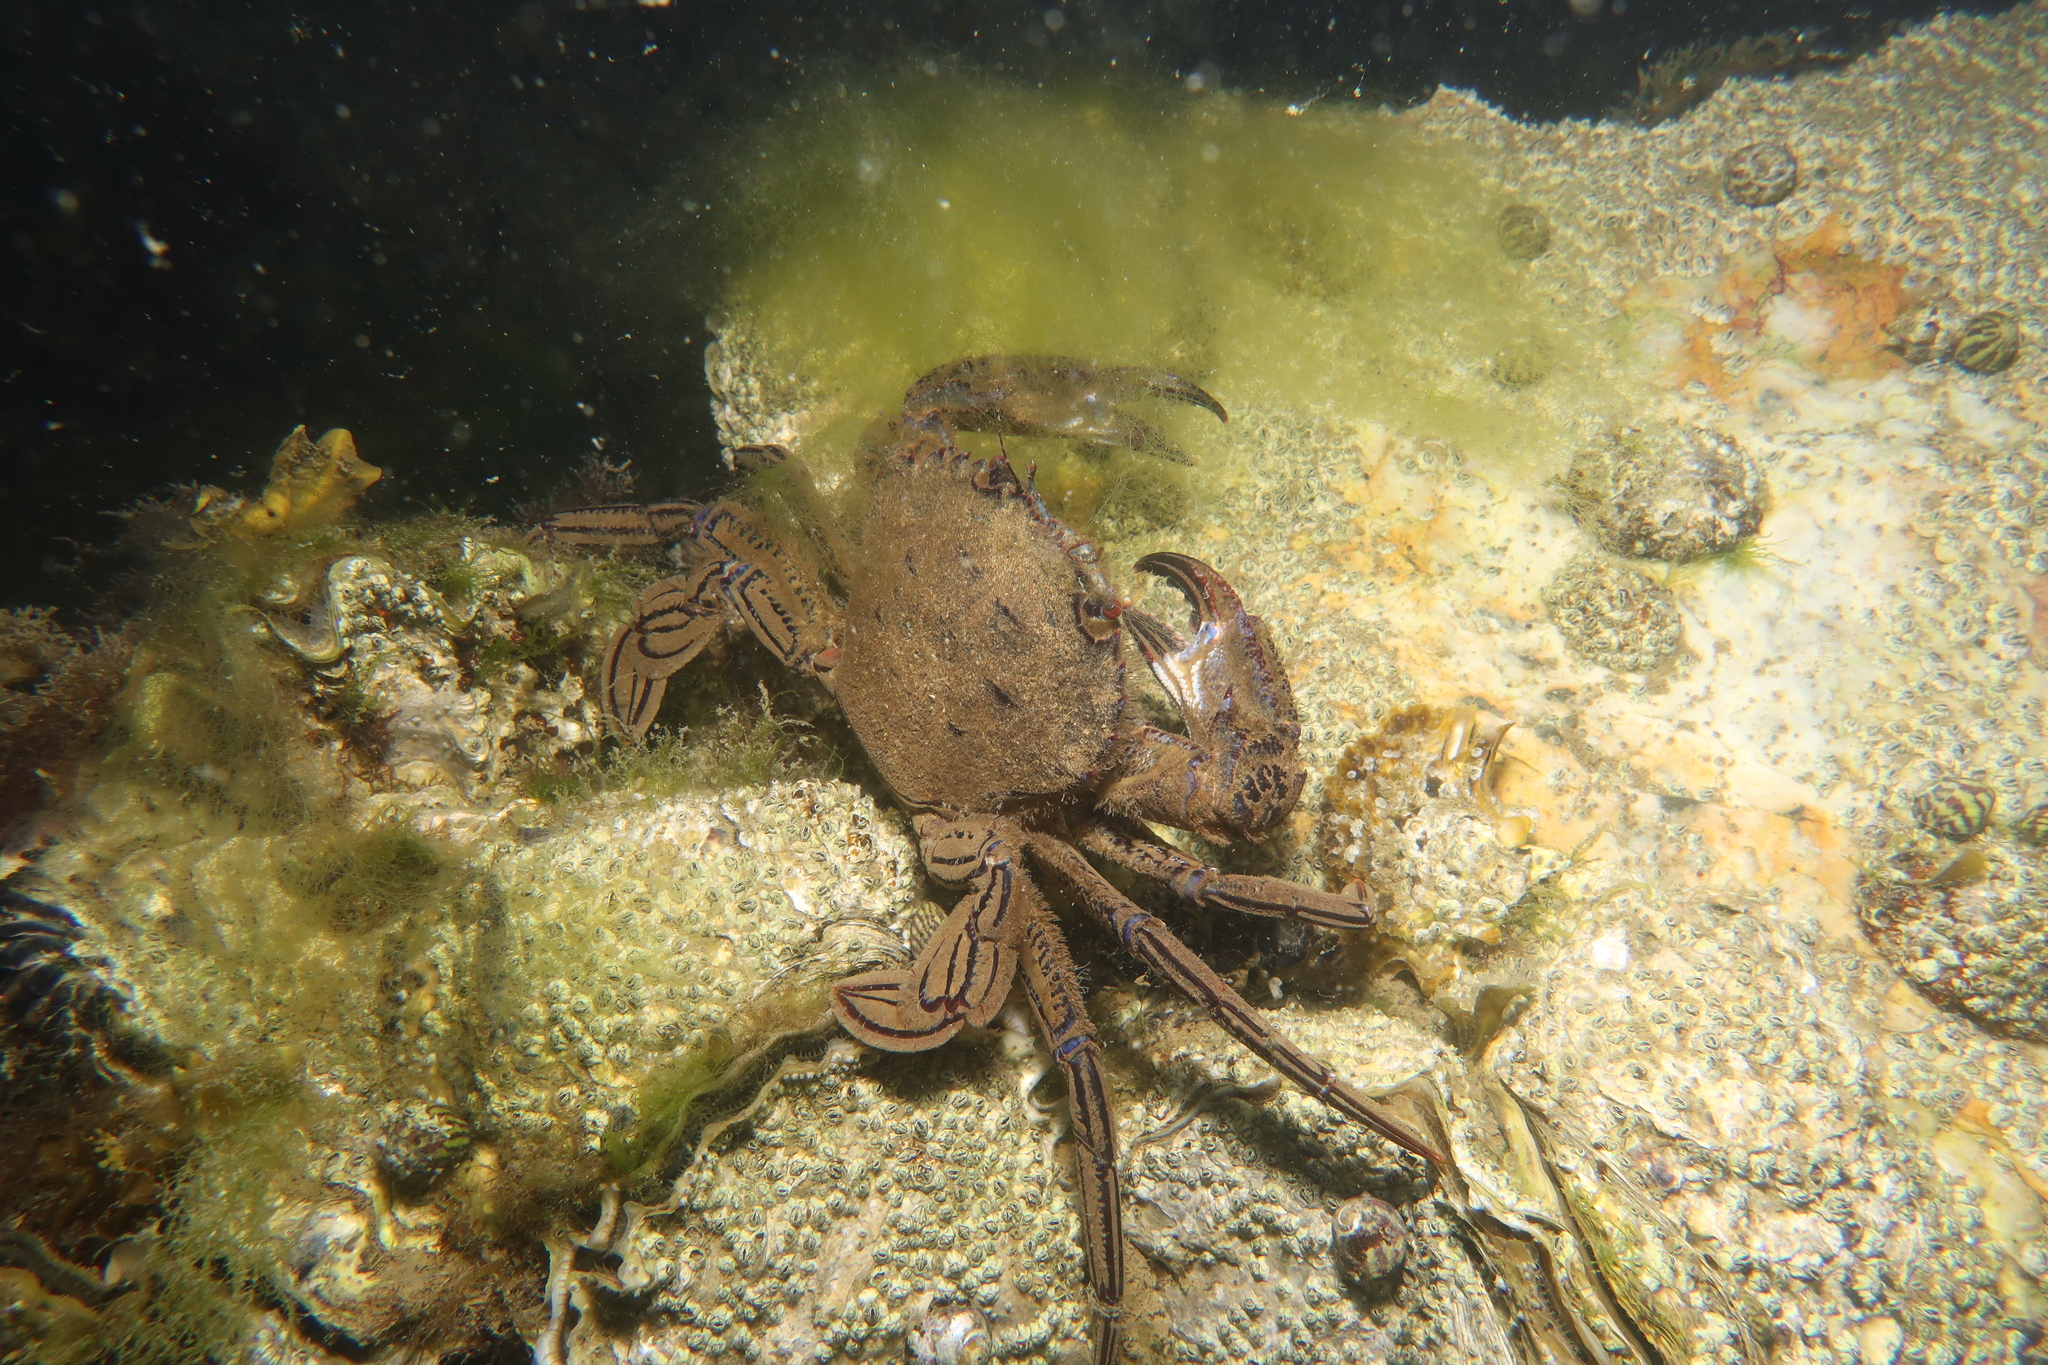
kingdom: Animalia
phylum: Arthropoda
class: Malacostraca
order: Decapoda
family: Polybiidae
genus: Necora
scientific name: Necora puber
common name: Velvet swimming crab
